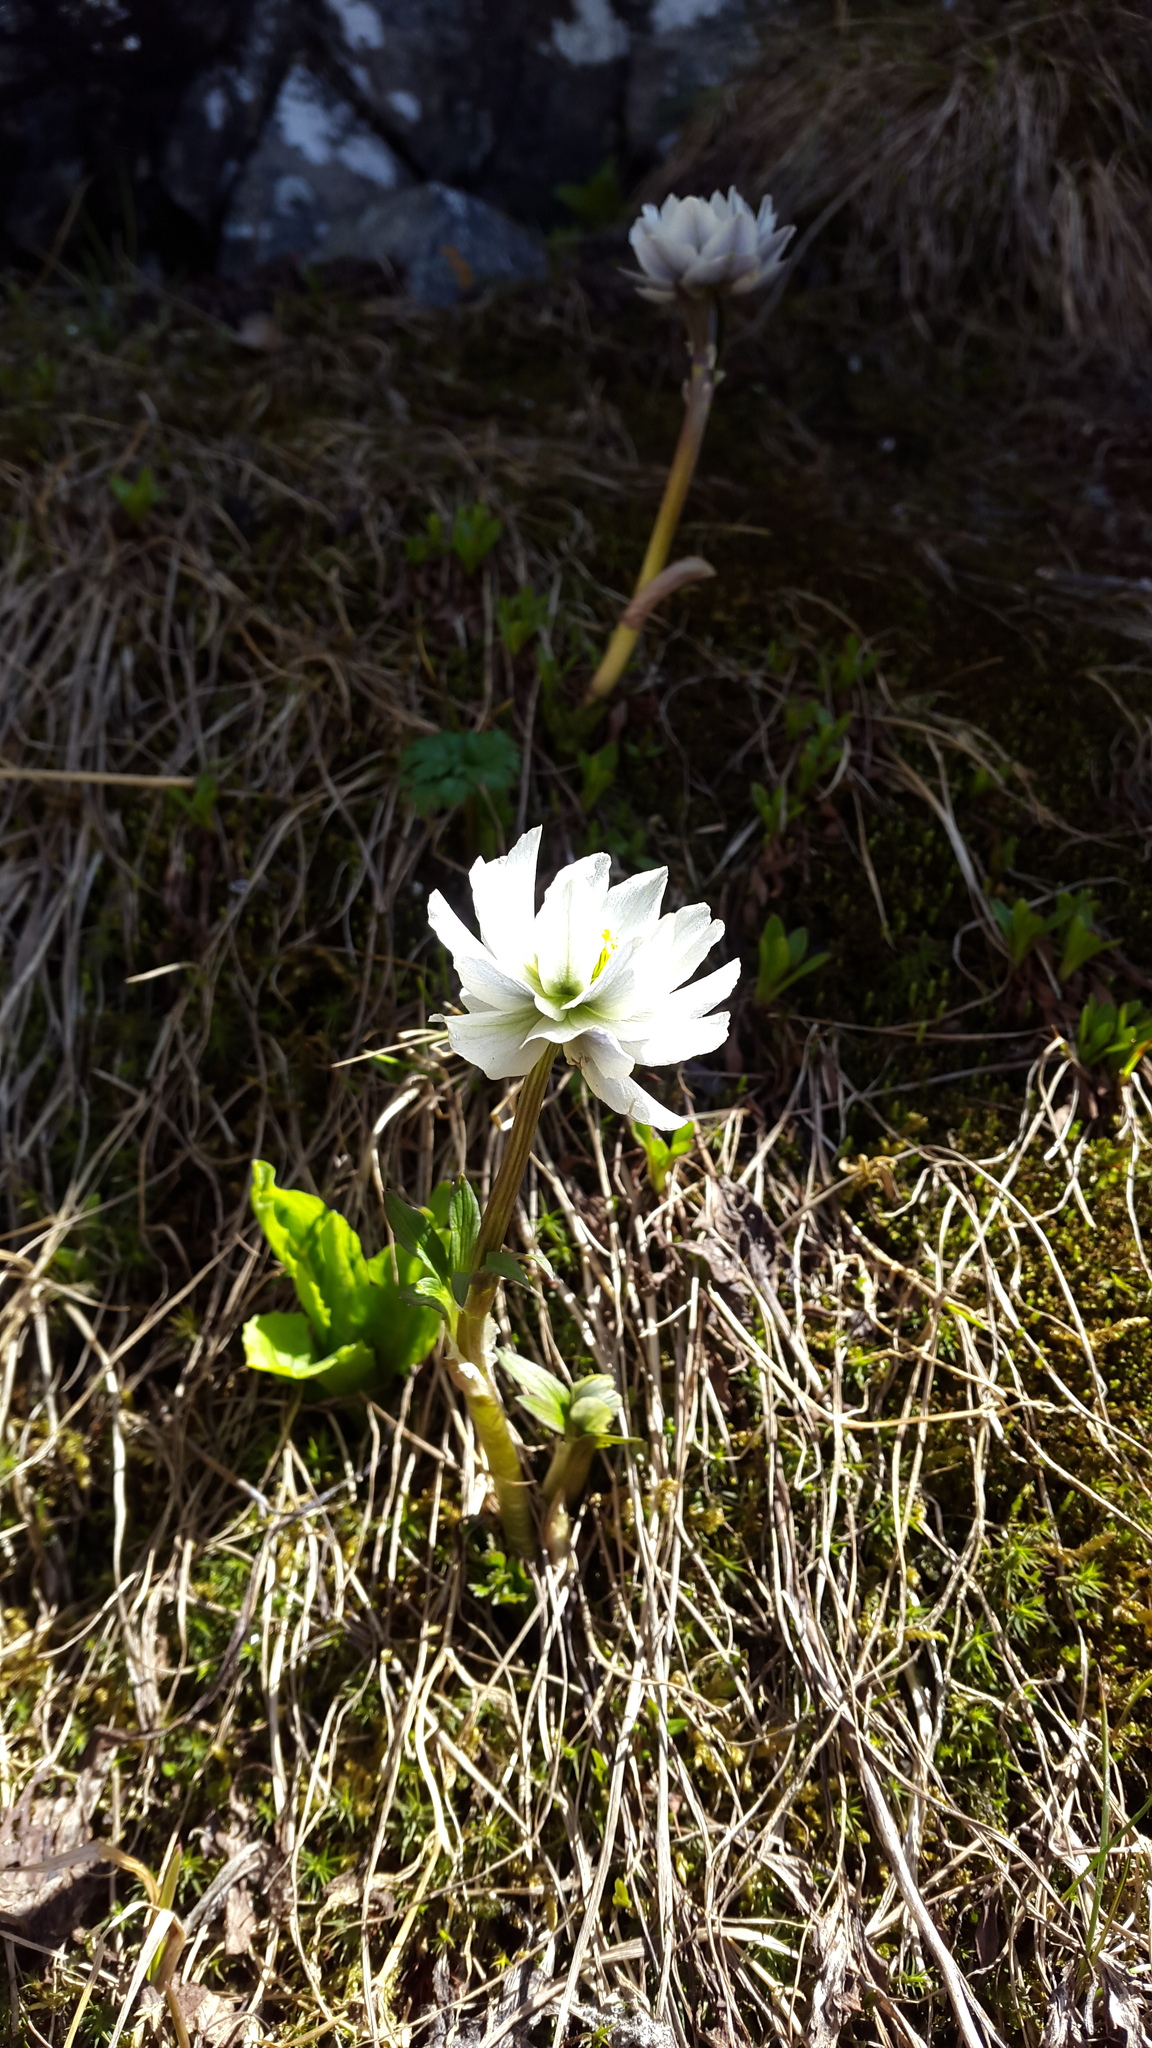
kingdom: Plantae
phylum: Tracheophyta
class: Magnoliopsida
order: Ranunculales
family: Ranunculaceae
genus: Trollius
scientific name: Trollius lilacinus
